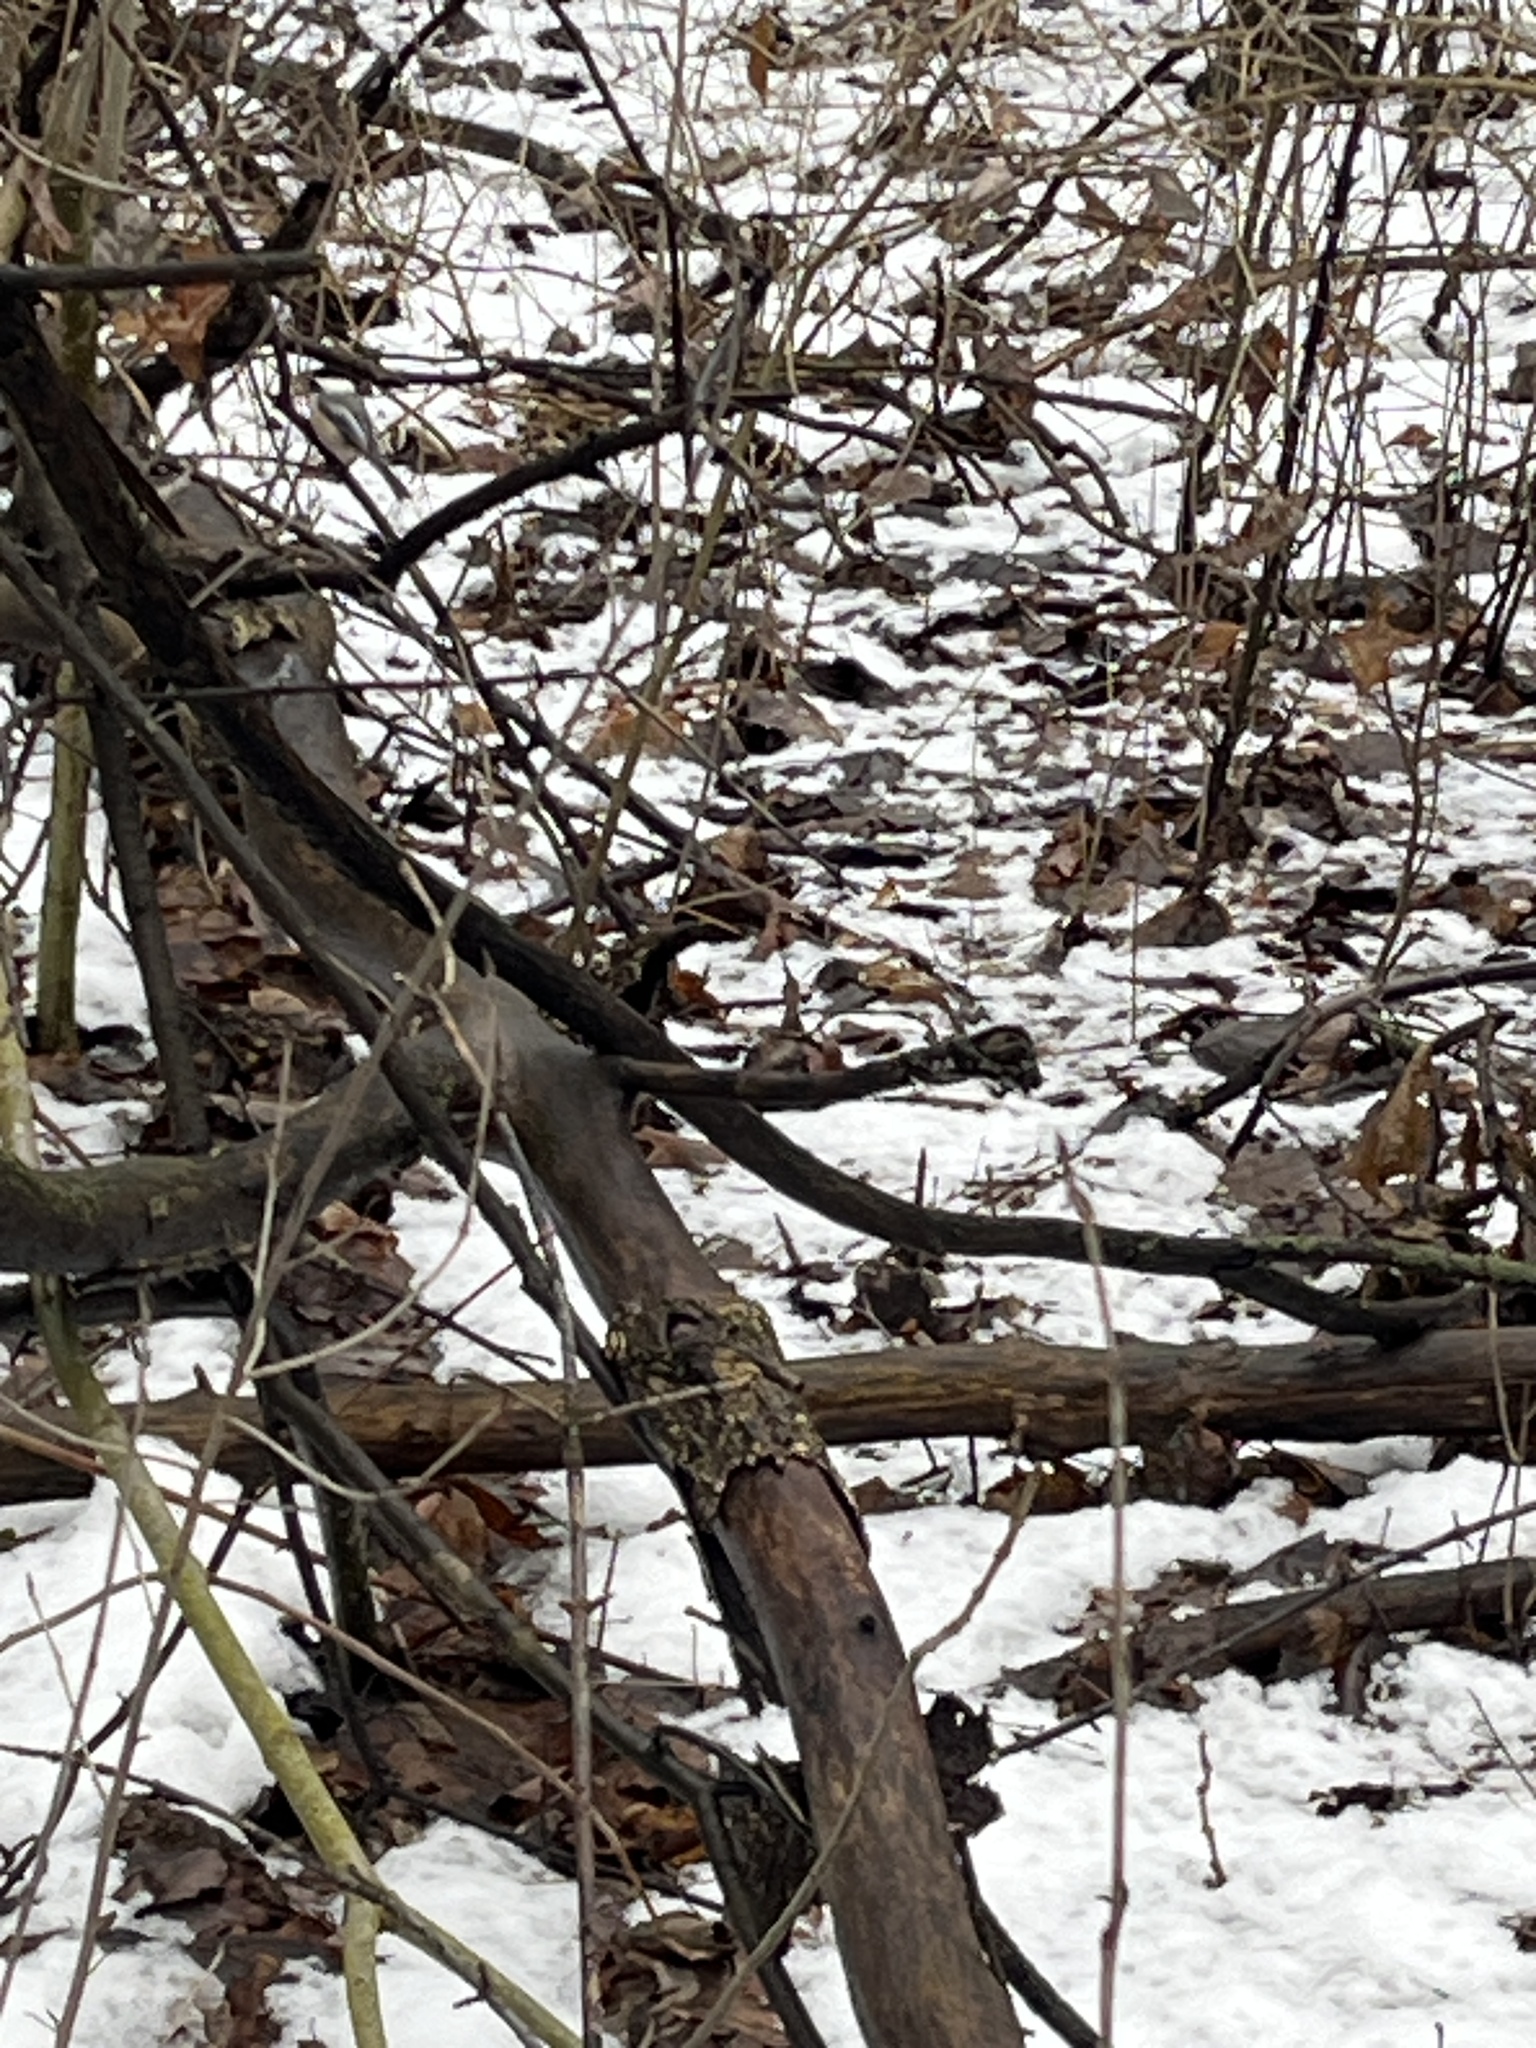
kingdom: Animalia
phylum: Chordata
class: Aves
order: Passeriformes
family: Paridae
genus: Poecile
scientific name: Poecile atricapillus
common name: Black-capped chickadee
